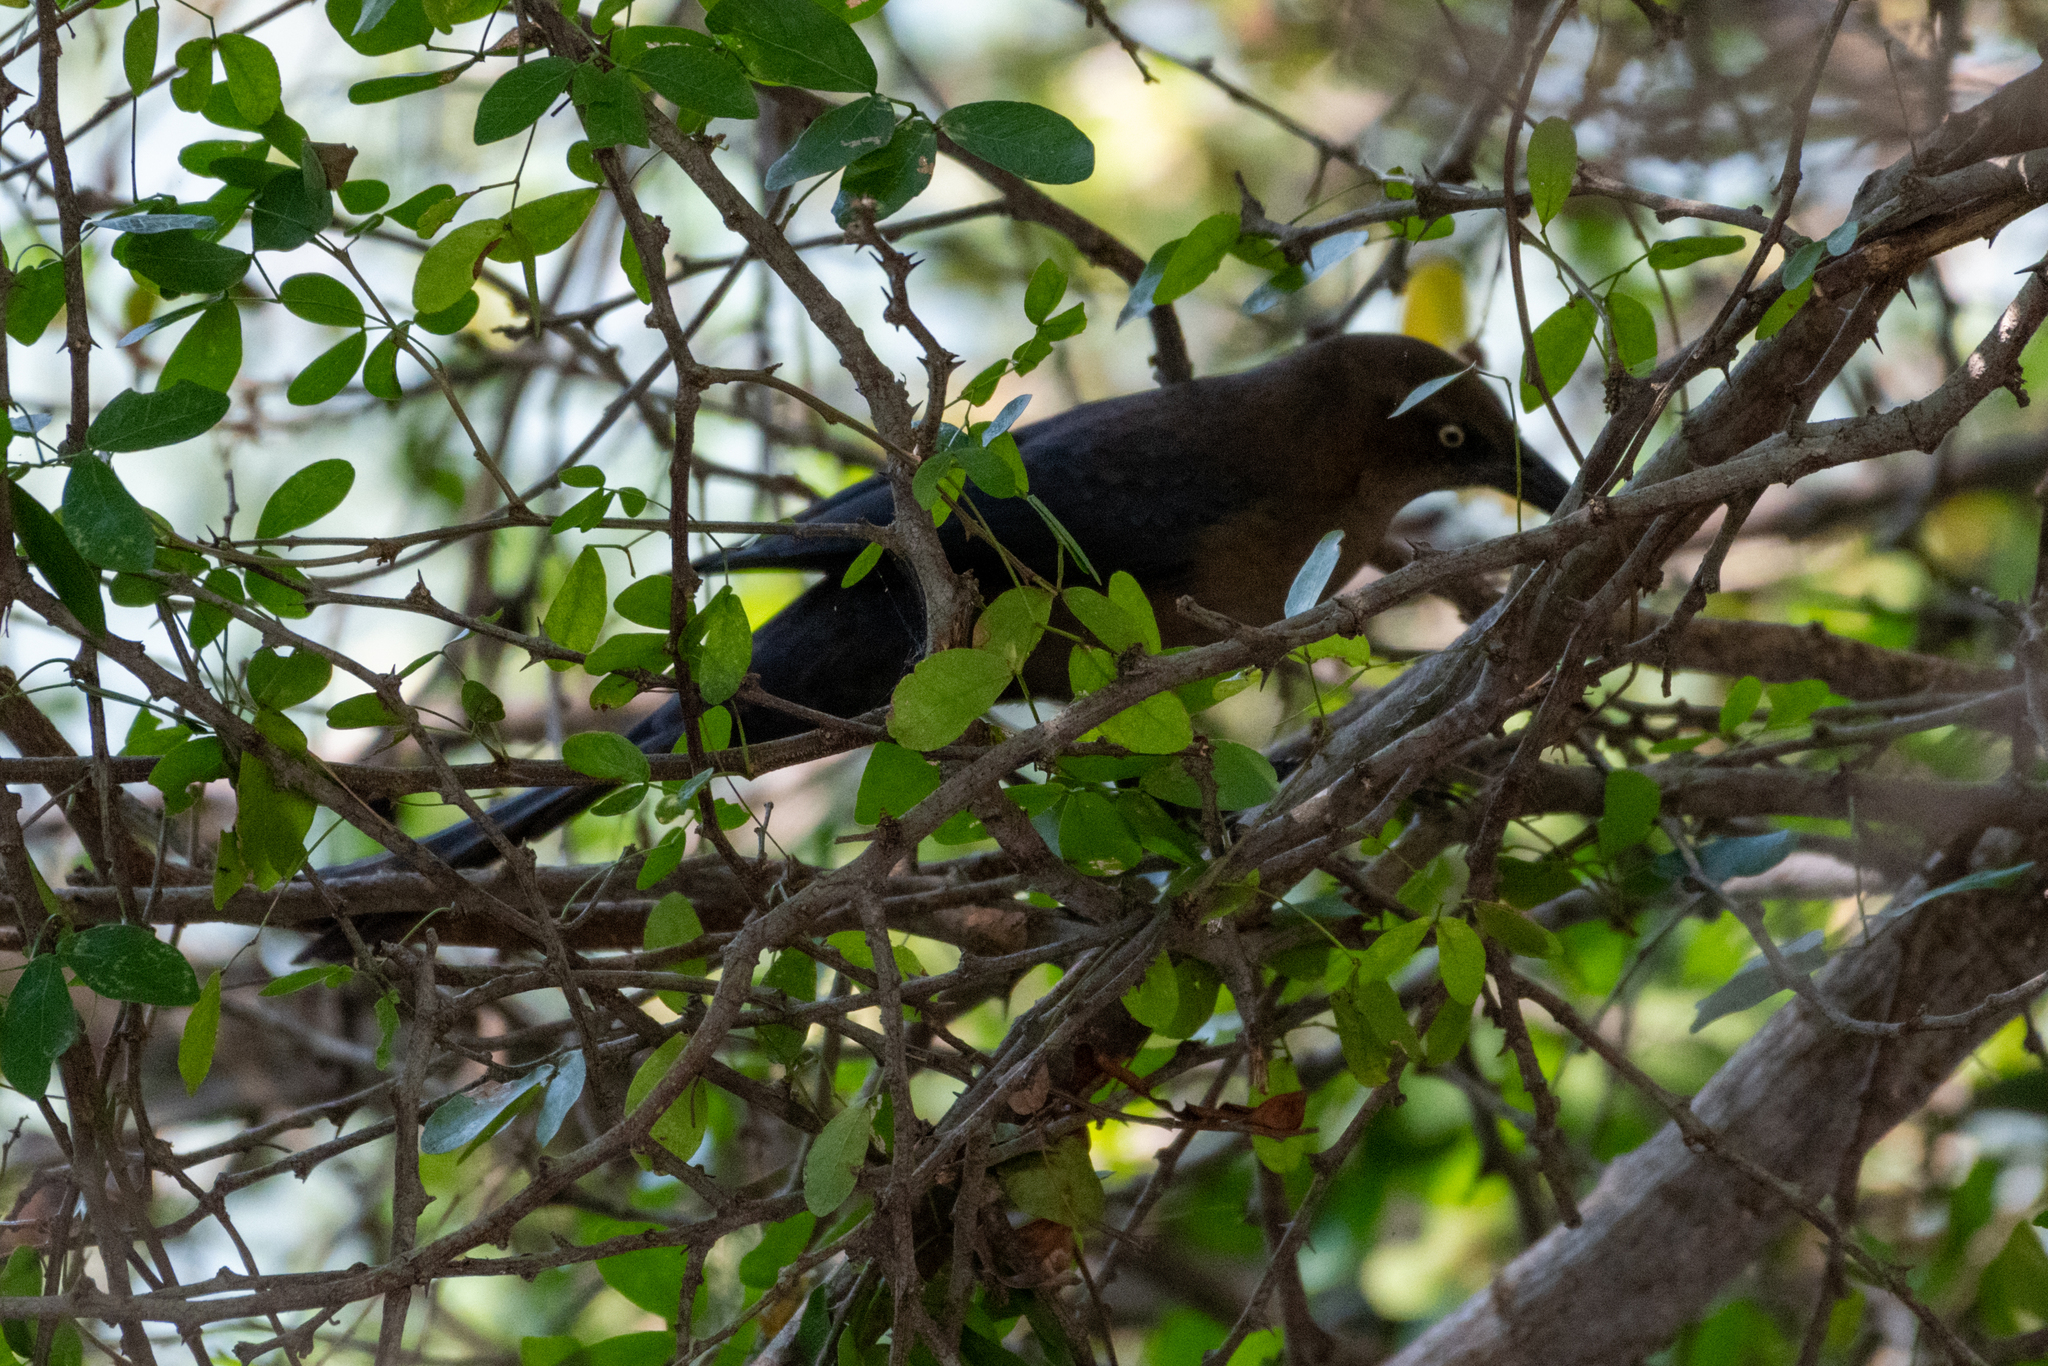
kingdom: Animalia
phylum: Chordata
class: Aves
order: Passeriformes
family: Icteridae
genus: Quiscalus
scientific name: Quiscalus mexicanus
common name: Great-tailed grackle
